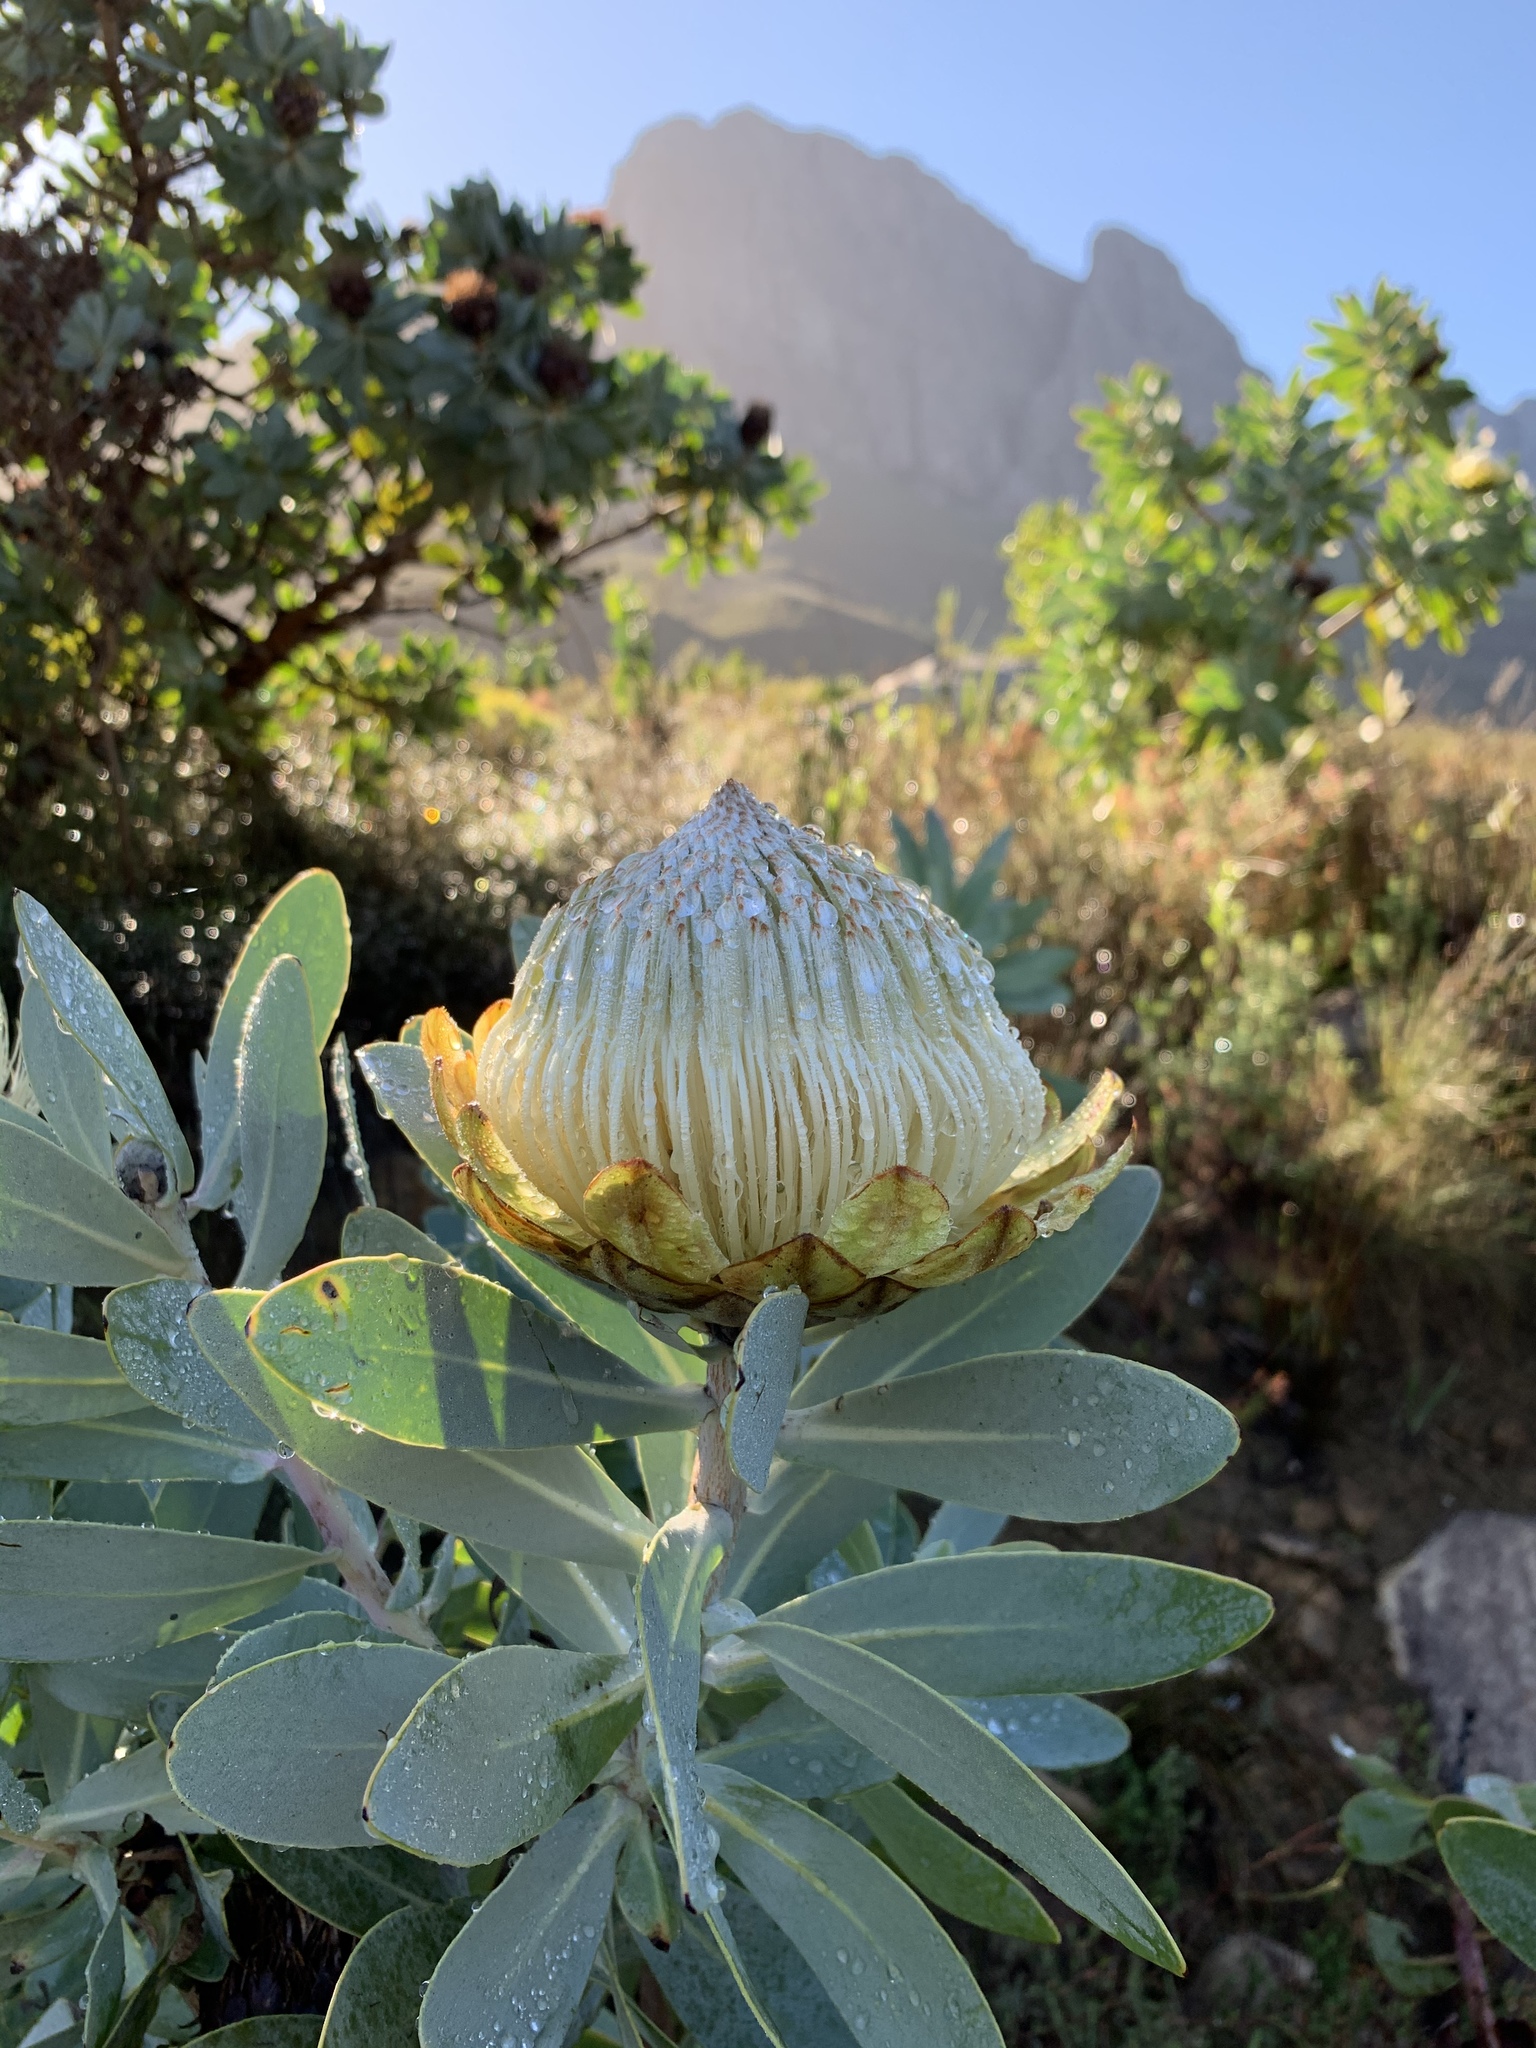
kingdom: Plantae
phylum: Tracheophyta
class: Magnoliopsida
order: Proteales
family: Proteaceae
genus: Protea
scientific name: Protea nitida
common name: Tree protea
